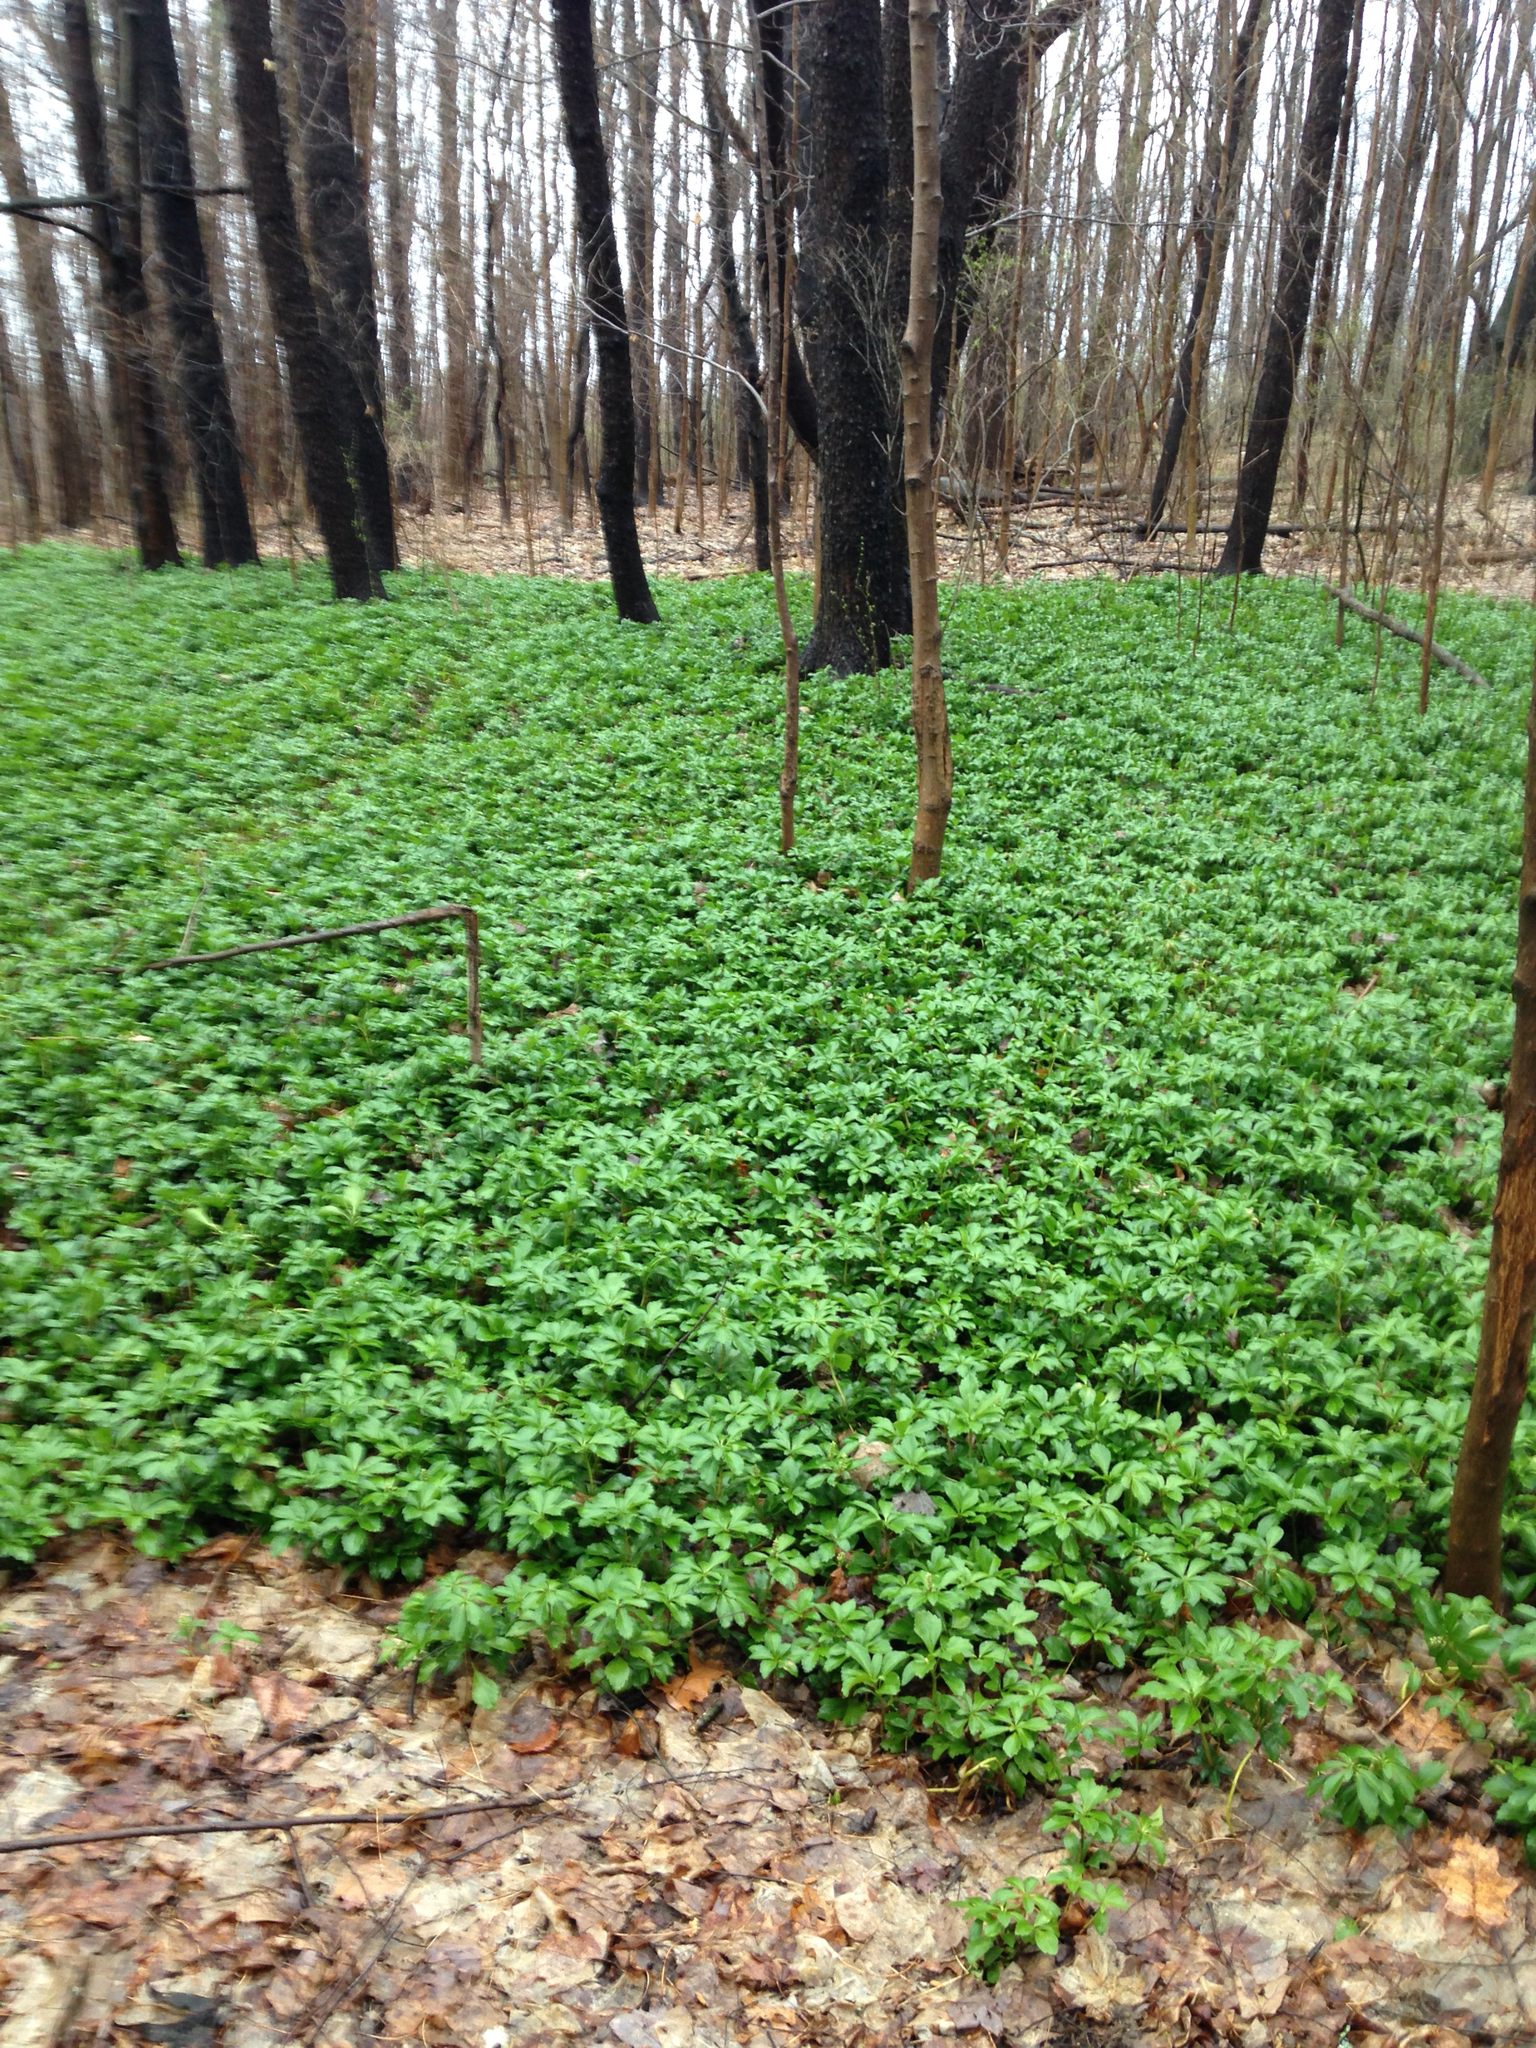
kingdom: Plantae
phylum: Tracheophyta
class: Magnoliopsida
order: Buxales
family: Buxaceae
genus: Pachysandra
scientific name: Pachysandra terminalis
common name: Japanese pachysandra
